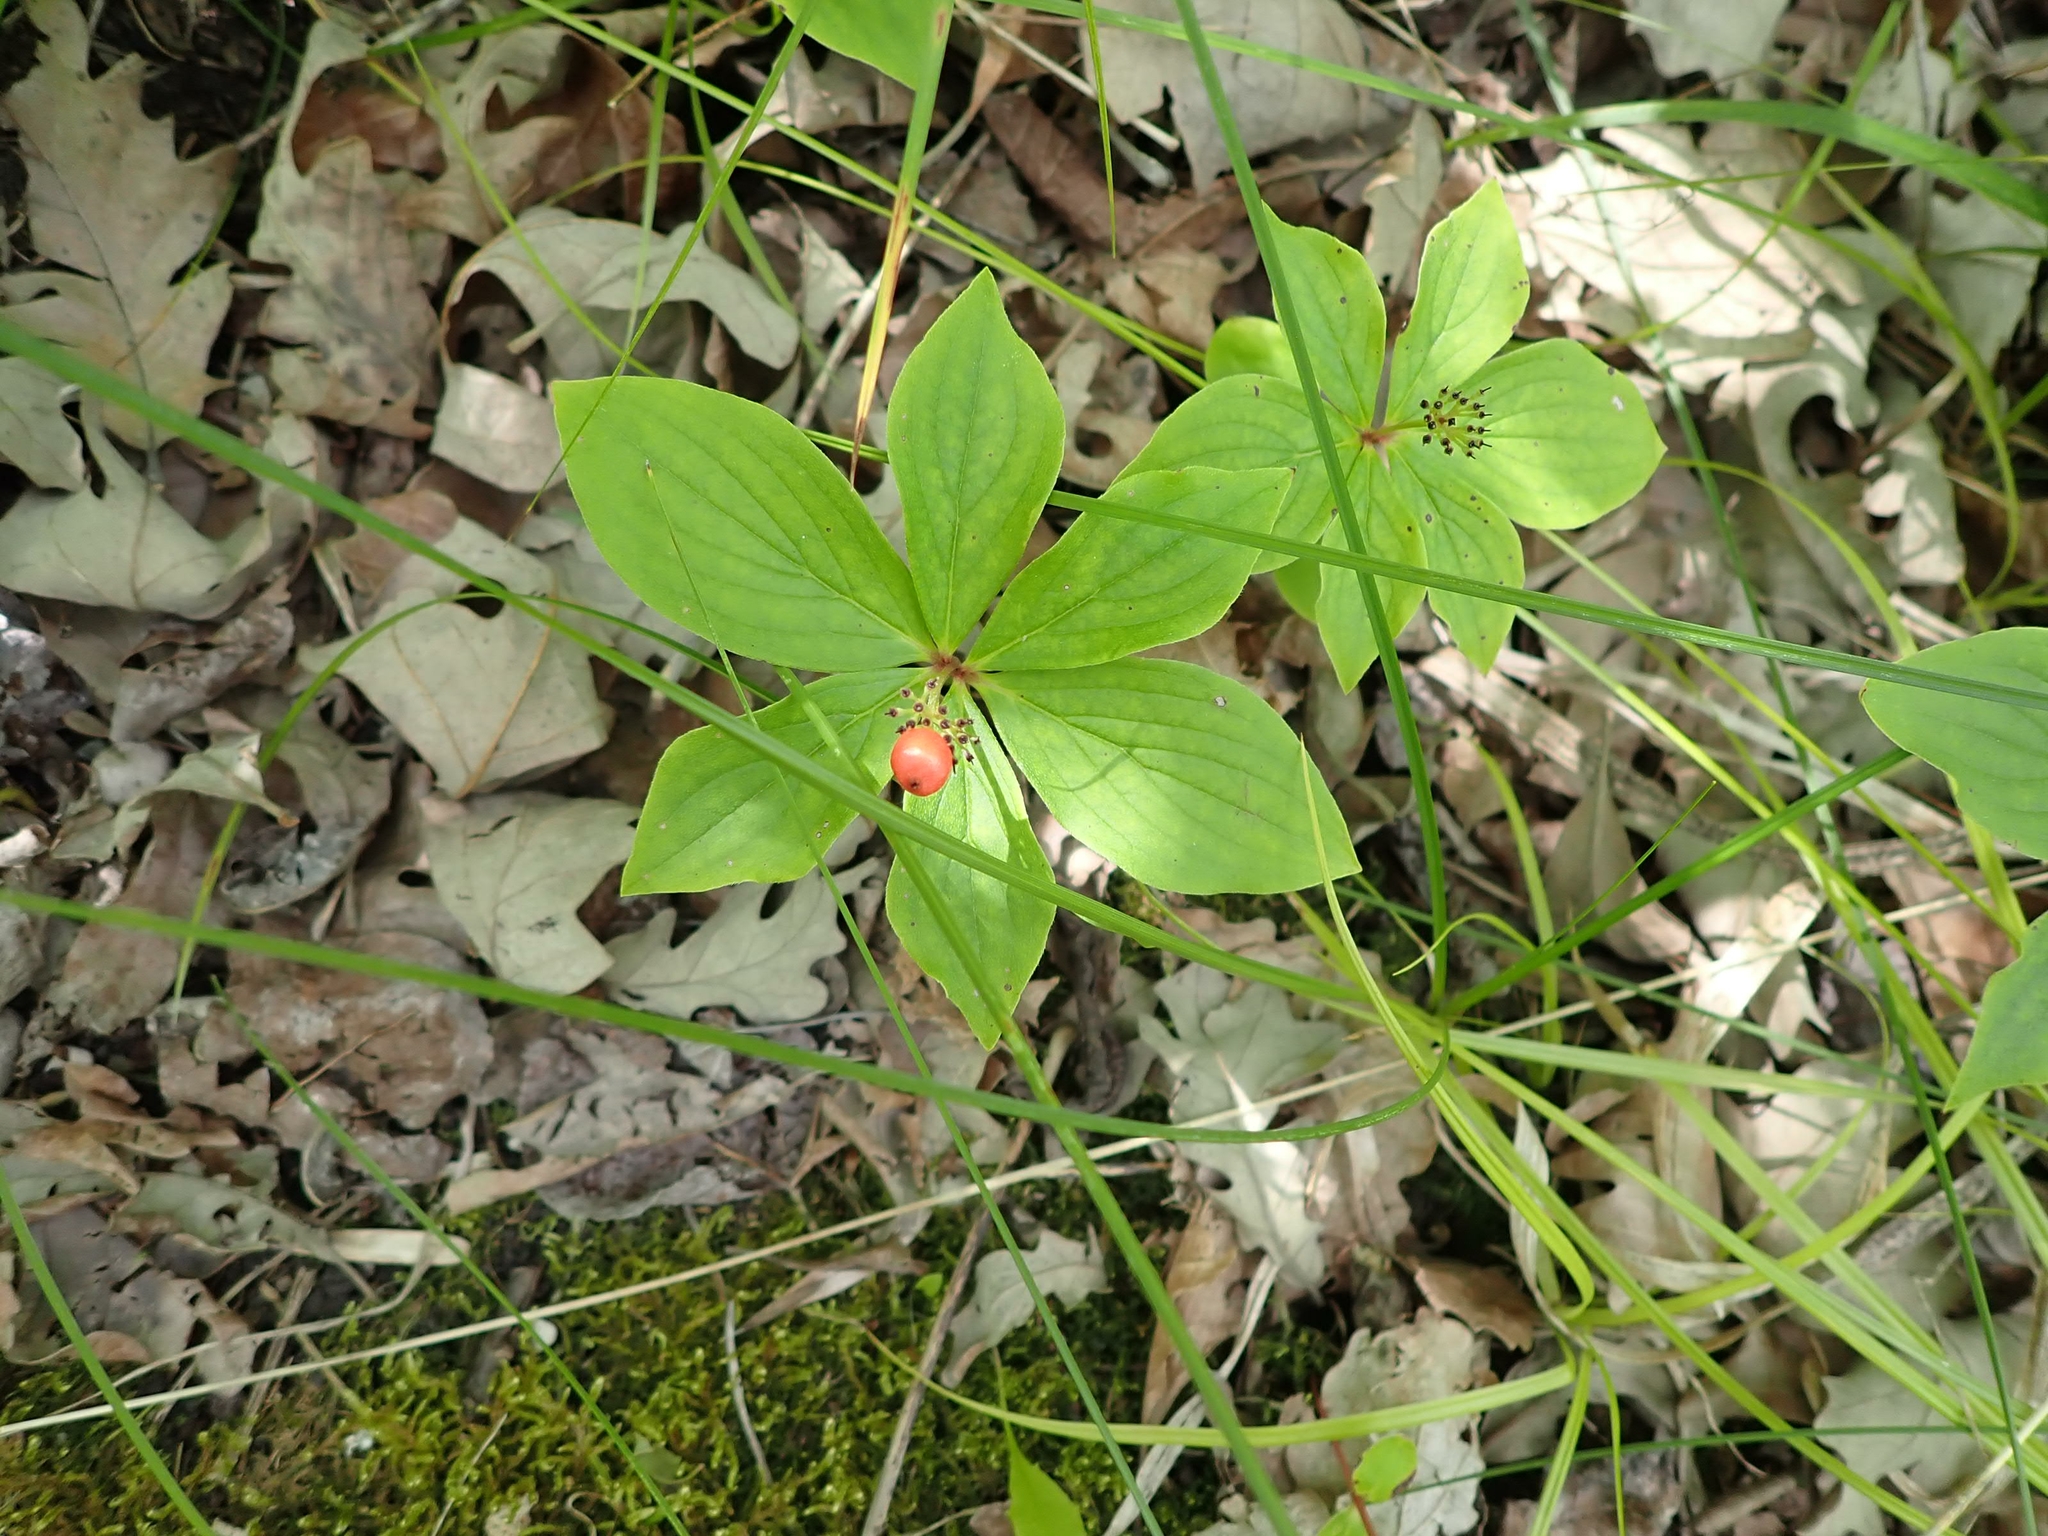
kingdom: Plantae
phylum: Tracheophyta
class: Magnoliopsida
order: Cornales
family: Cornaceae
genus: Cornus
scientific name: Cornus canadensis
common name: Creeping dogwood
